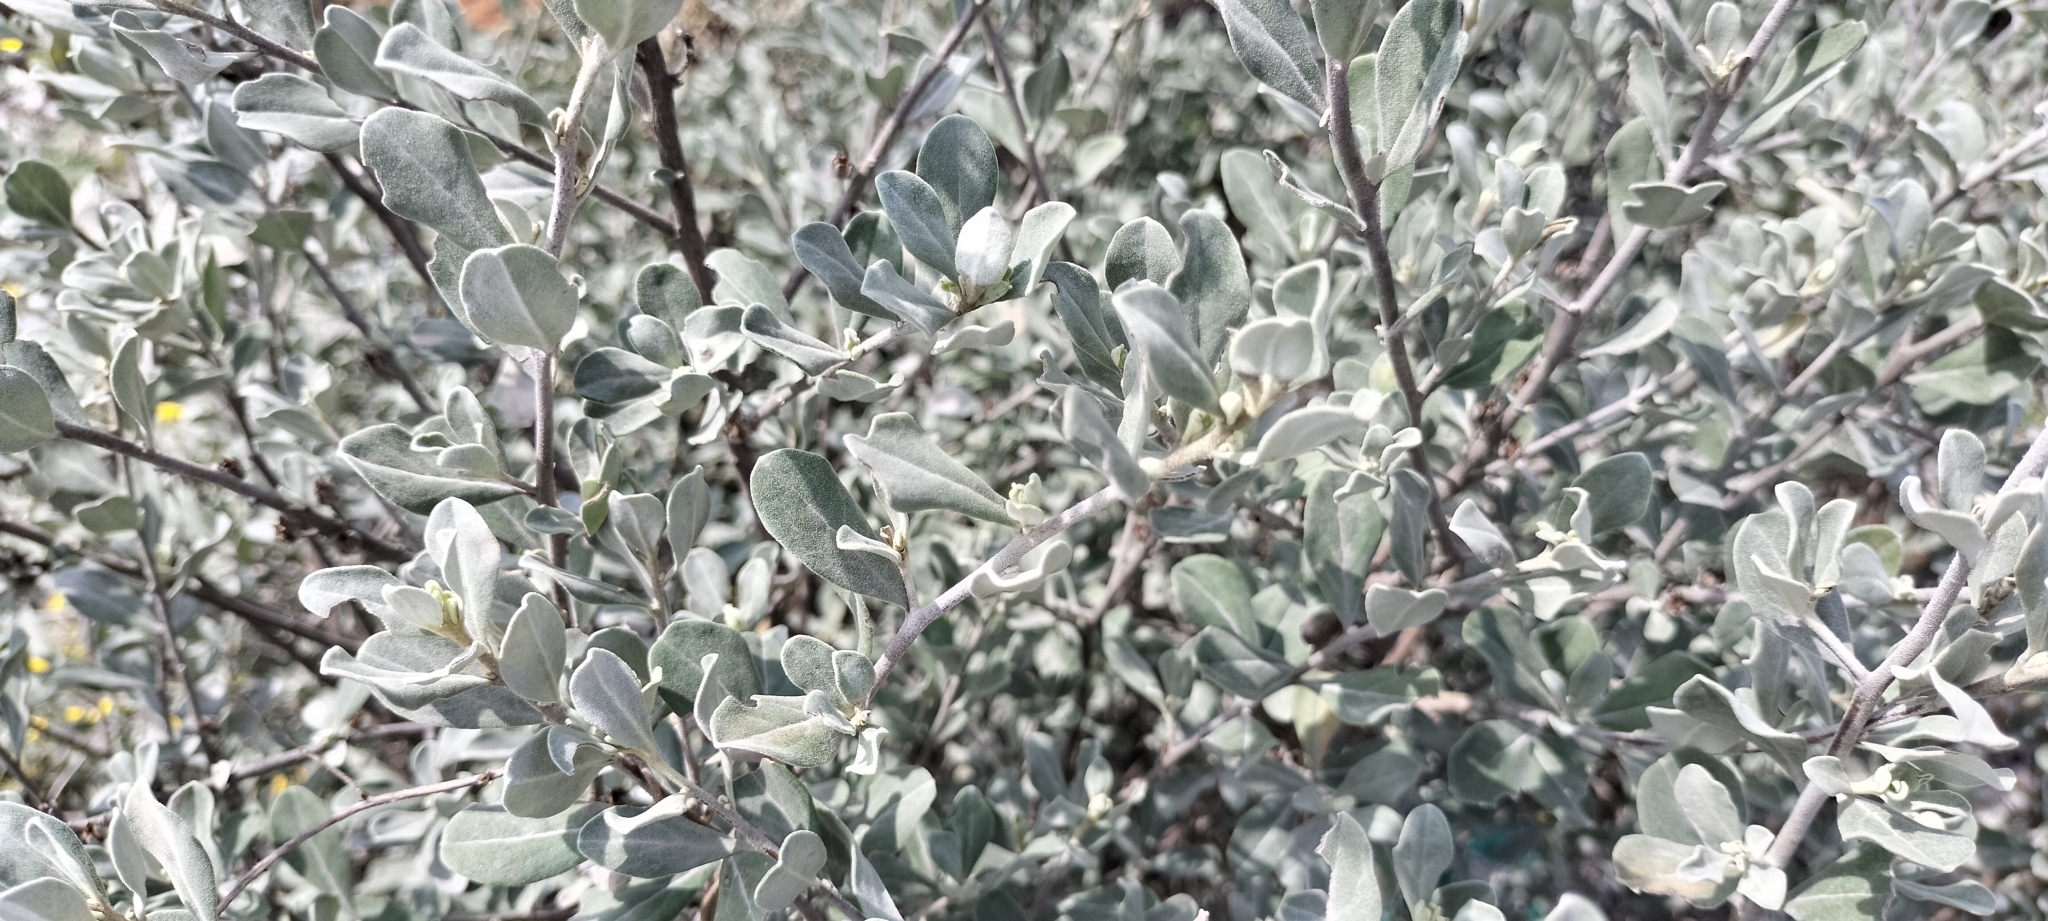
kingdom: Plantae
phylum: Tracheophyta
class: Magnoliopsida
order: Lamiales
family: Scrophulariaceae
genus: Leucophyllum
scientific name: Leucophyllum frutescens
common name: Texas silverleaf
